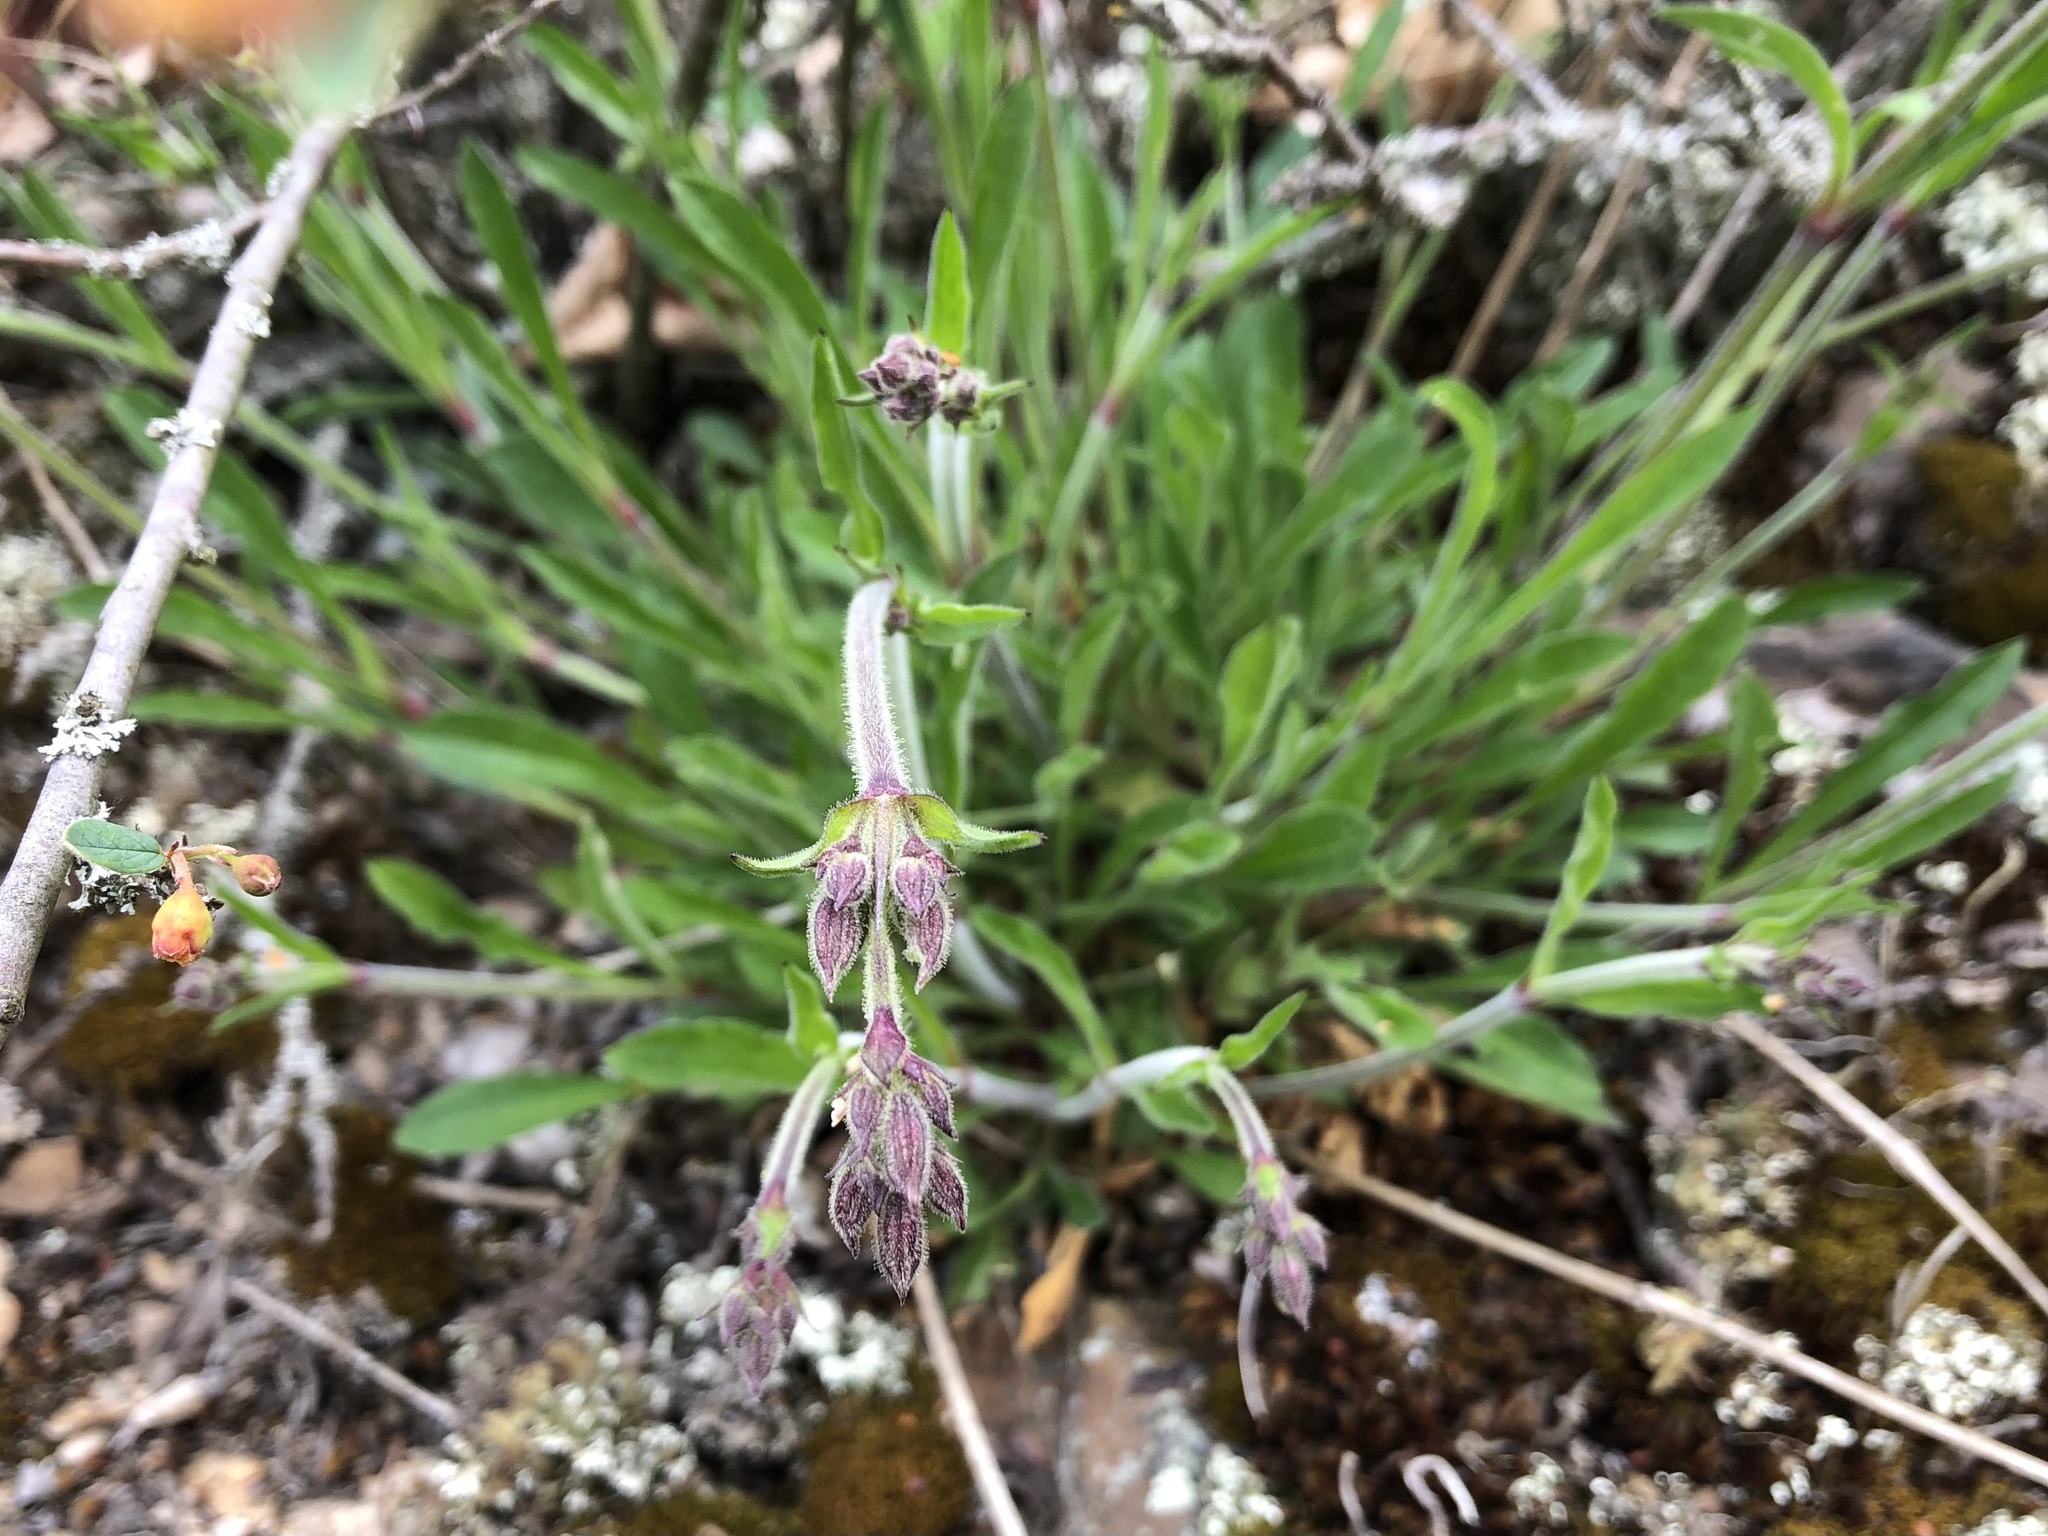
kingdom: Plantae
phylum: Tracheophyta
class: Magnoliopsida
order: Caryophyllales
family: Caryophyllaceae
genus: Silene
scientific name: Silene nutans
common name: Nottingham catchfly
